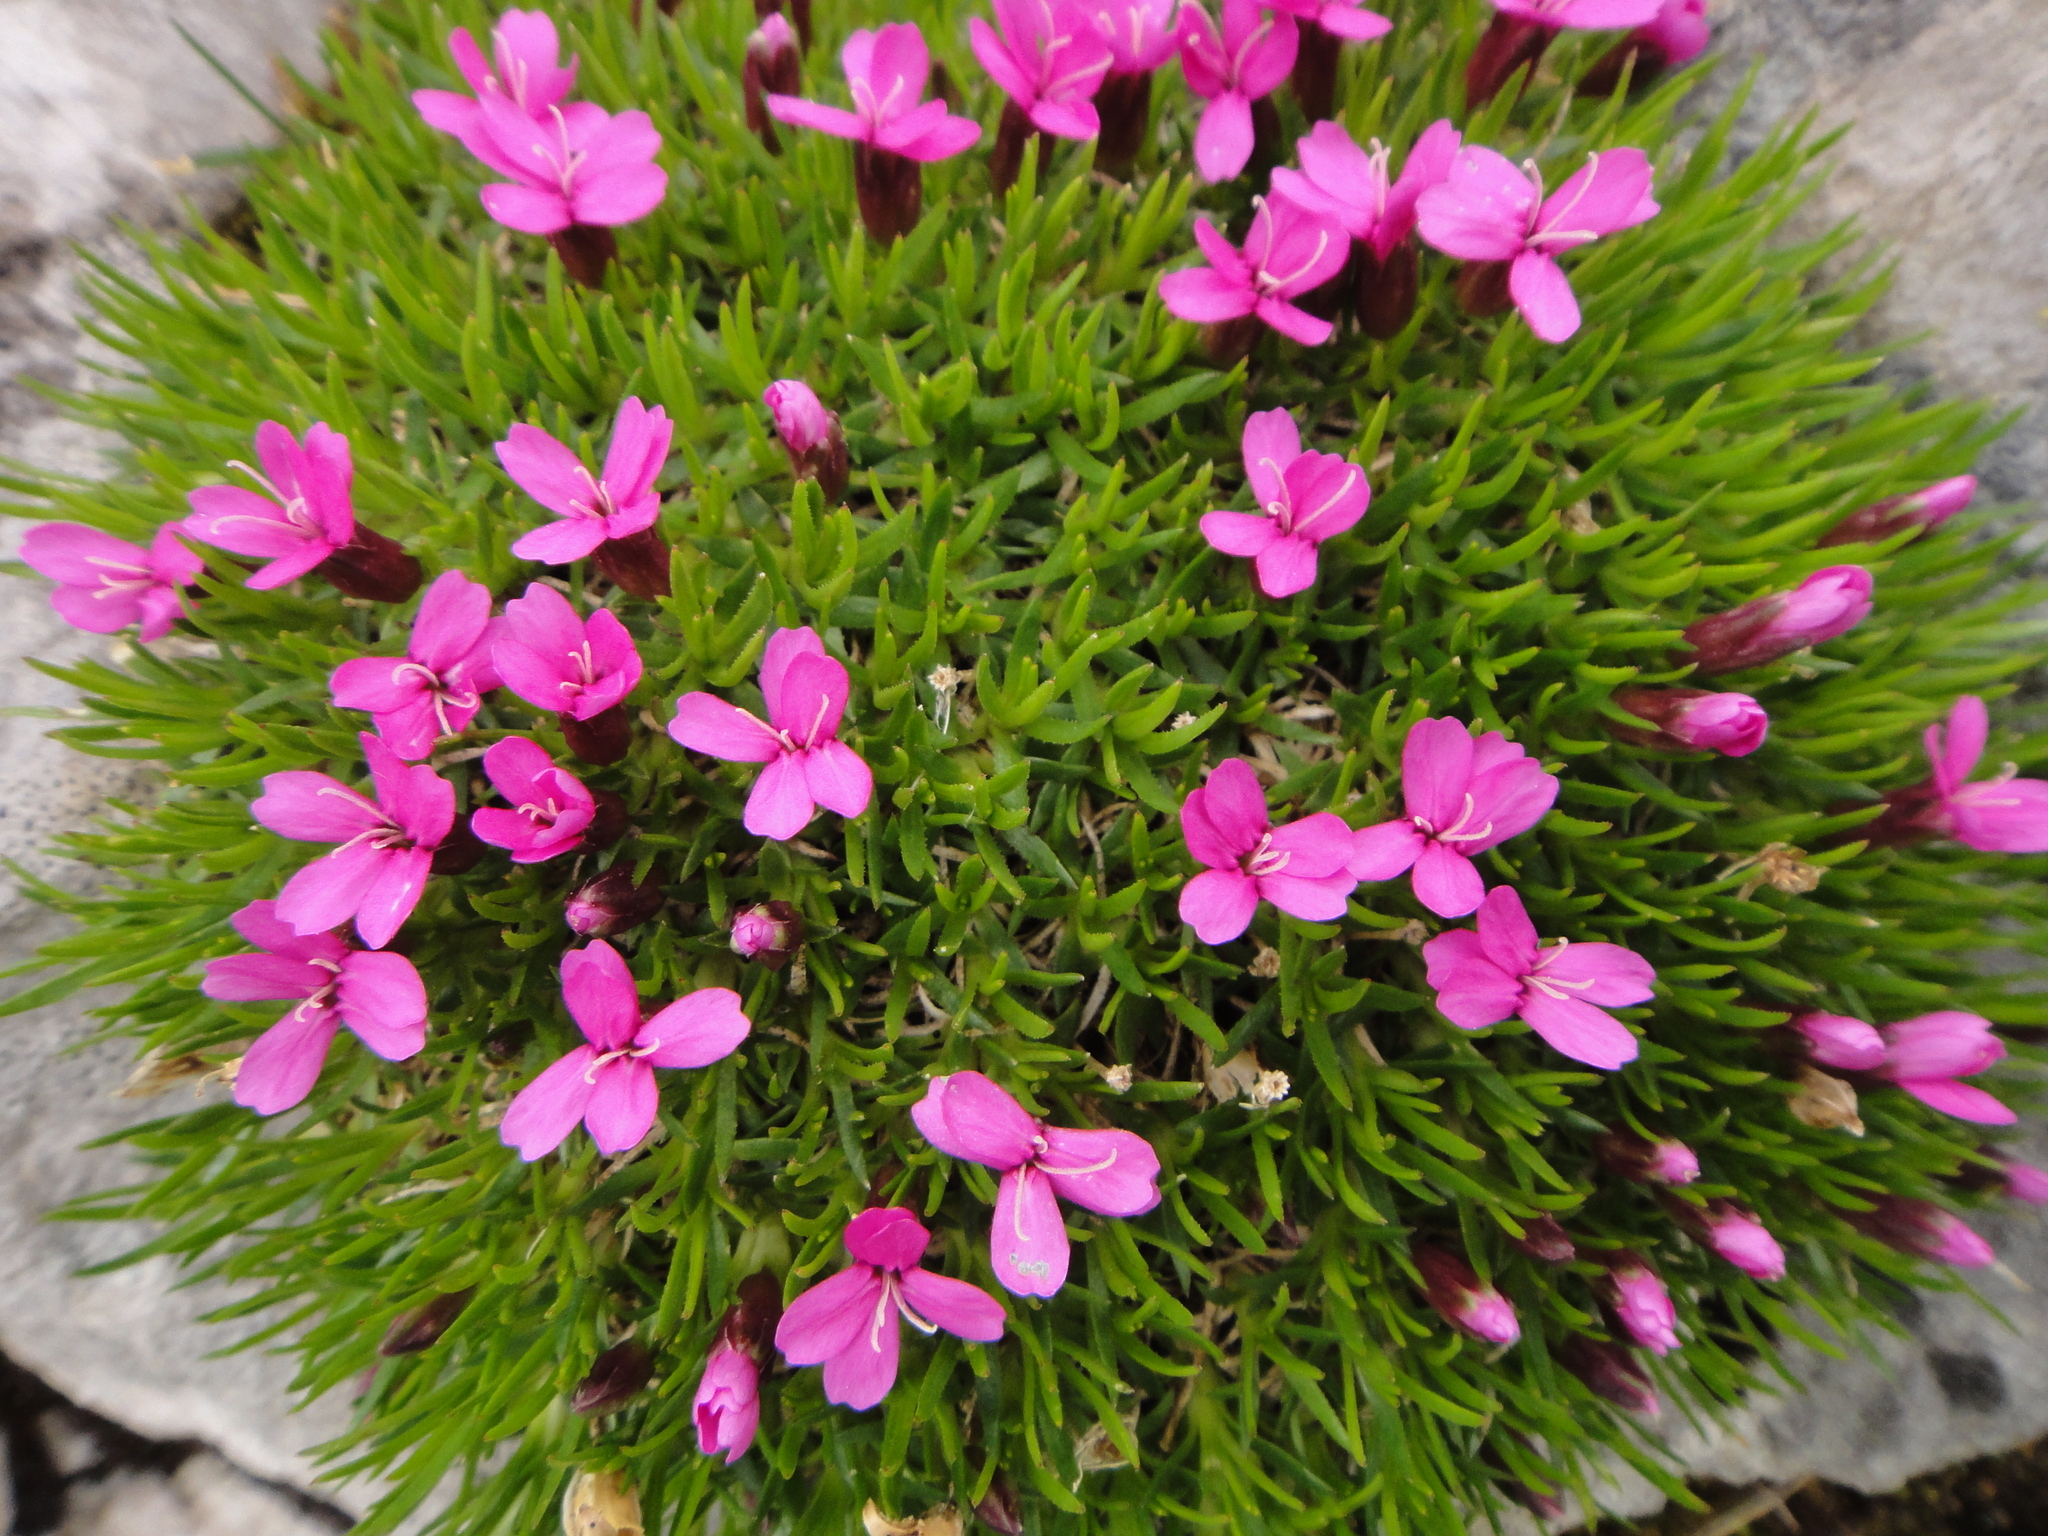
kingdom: Plantae
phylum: Tracheophyta
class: Magnoliopsida
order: Caryophyllales
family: Caryophyllaceae
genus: Silene
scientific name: Silene acaulis
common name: Moss campion
